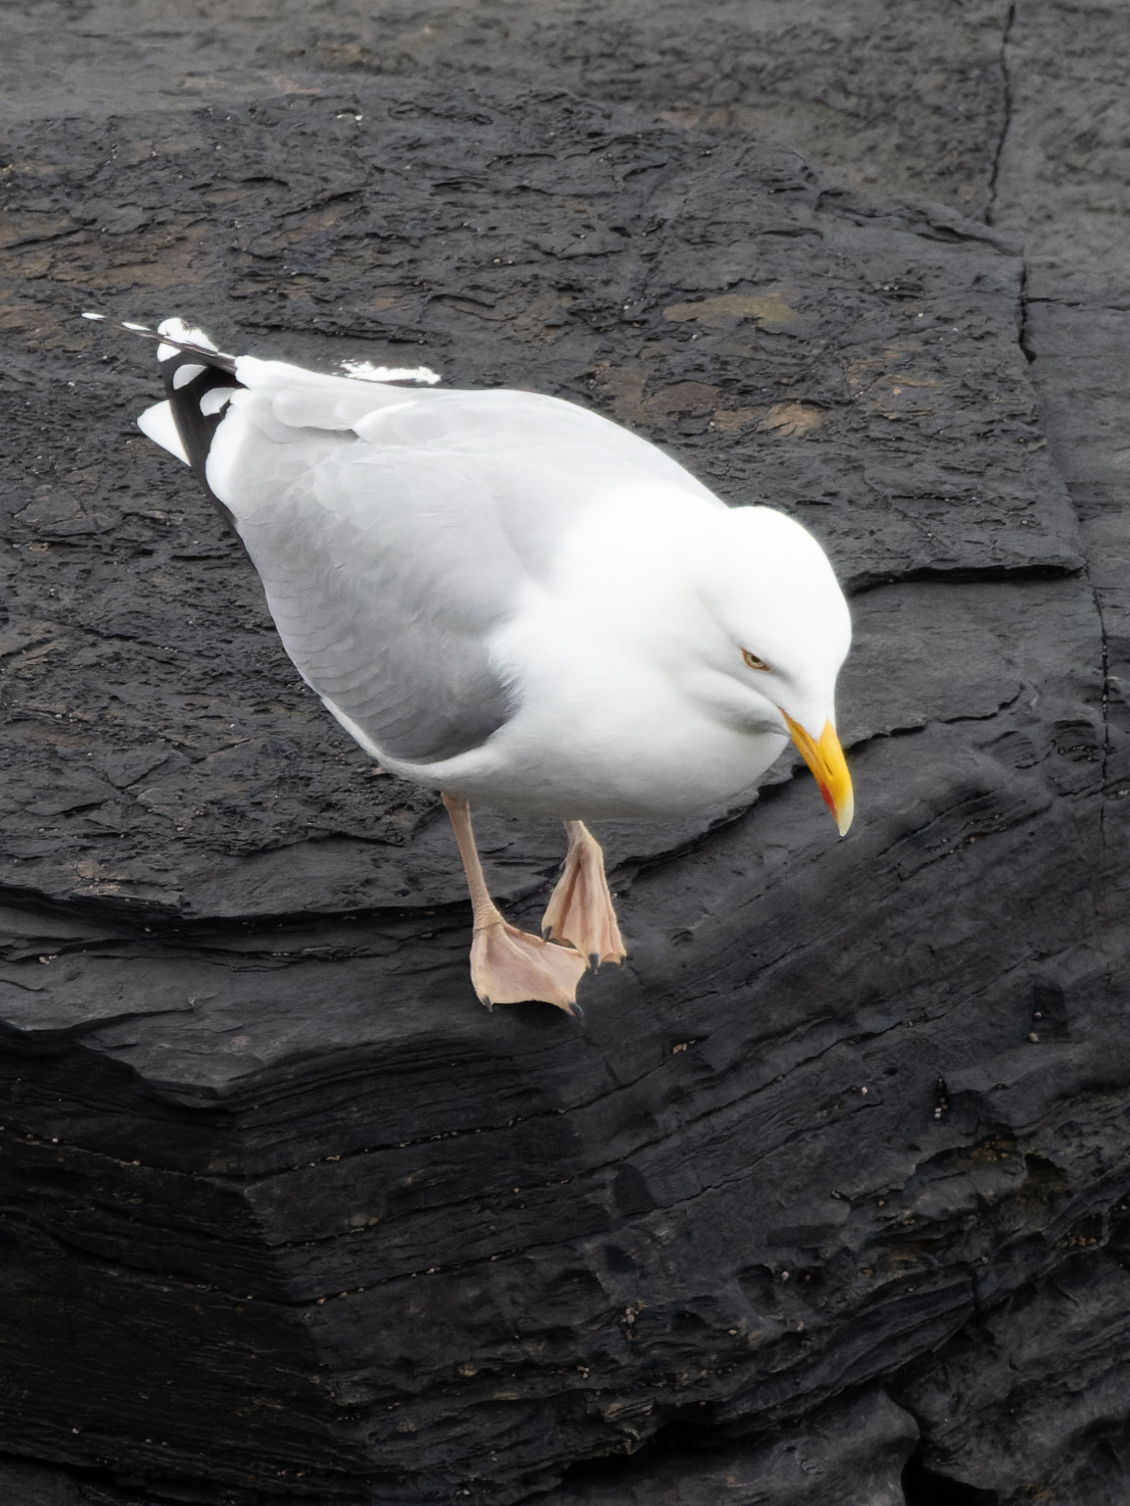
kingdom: Animalia
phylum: Chordata
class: Aves
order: Charadriiformes
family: Laridae
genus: Larus
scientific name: Larus argentatus
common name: Herring gull
